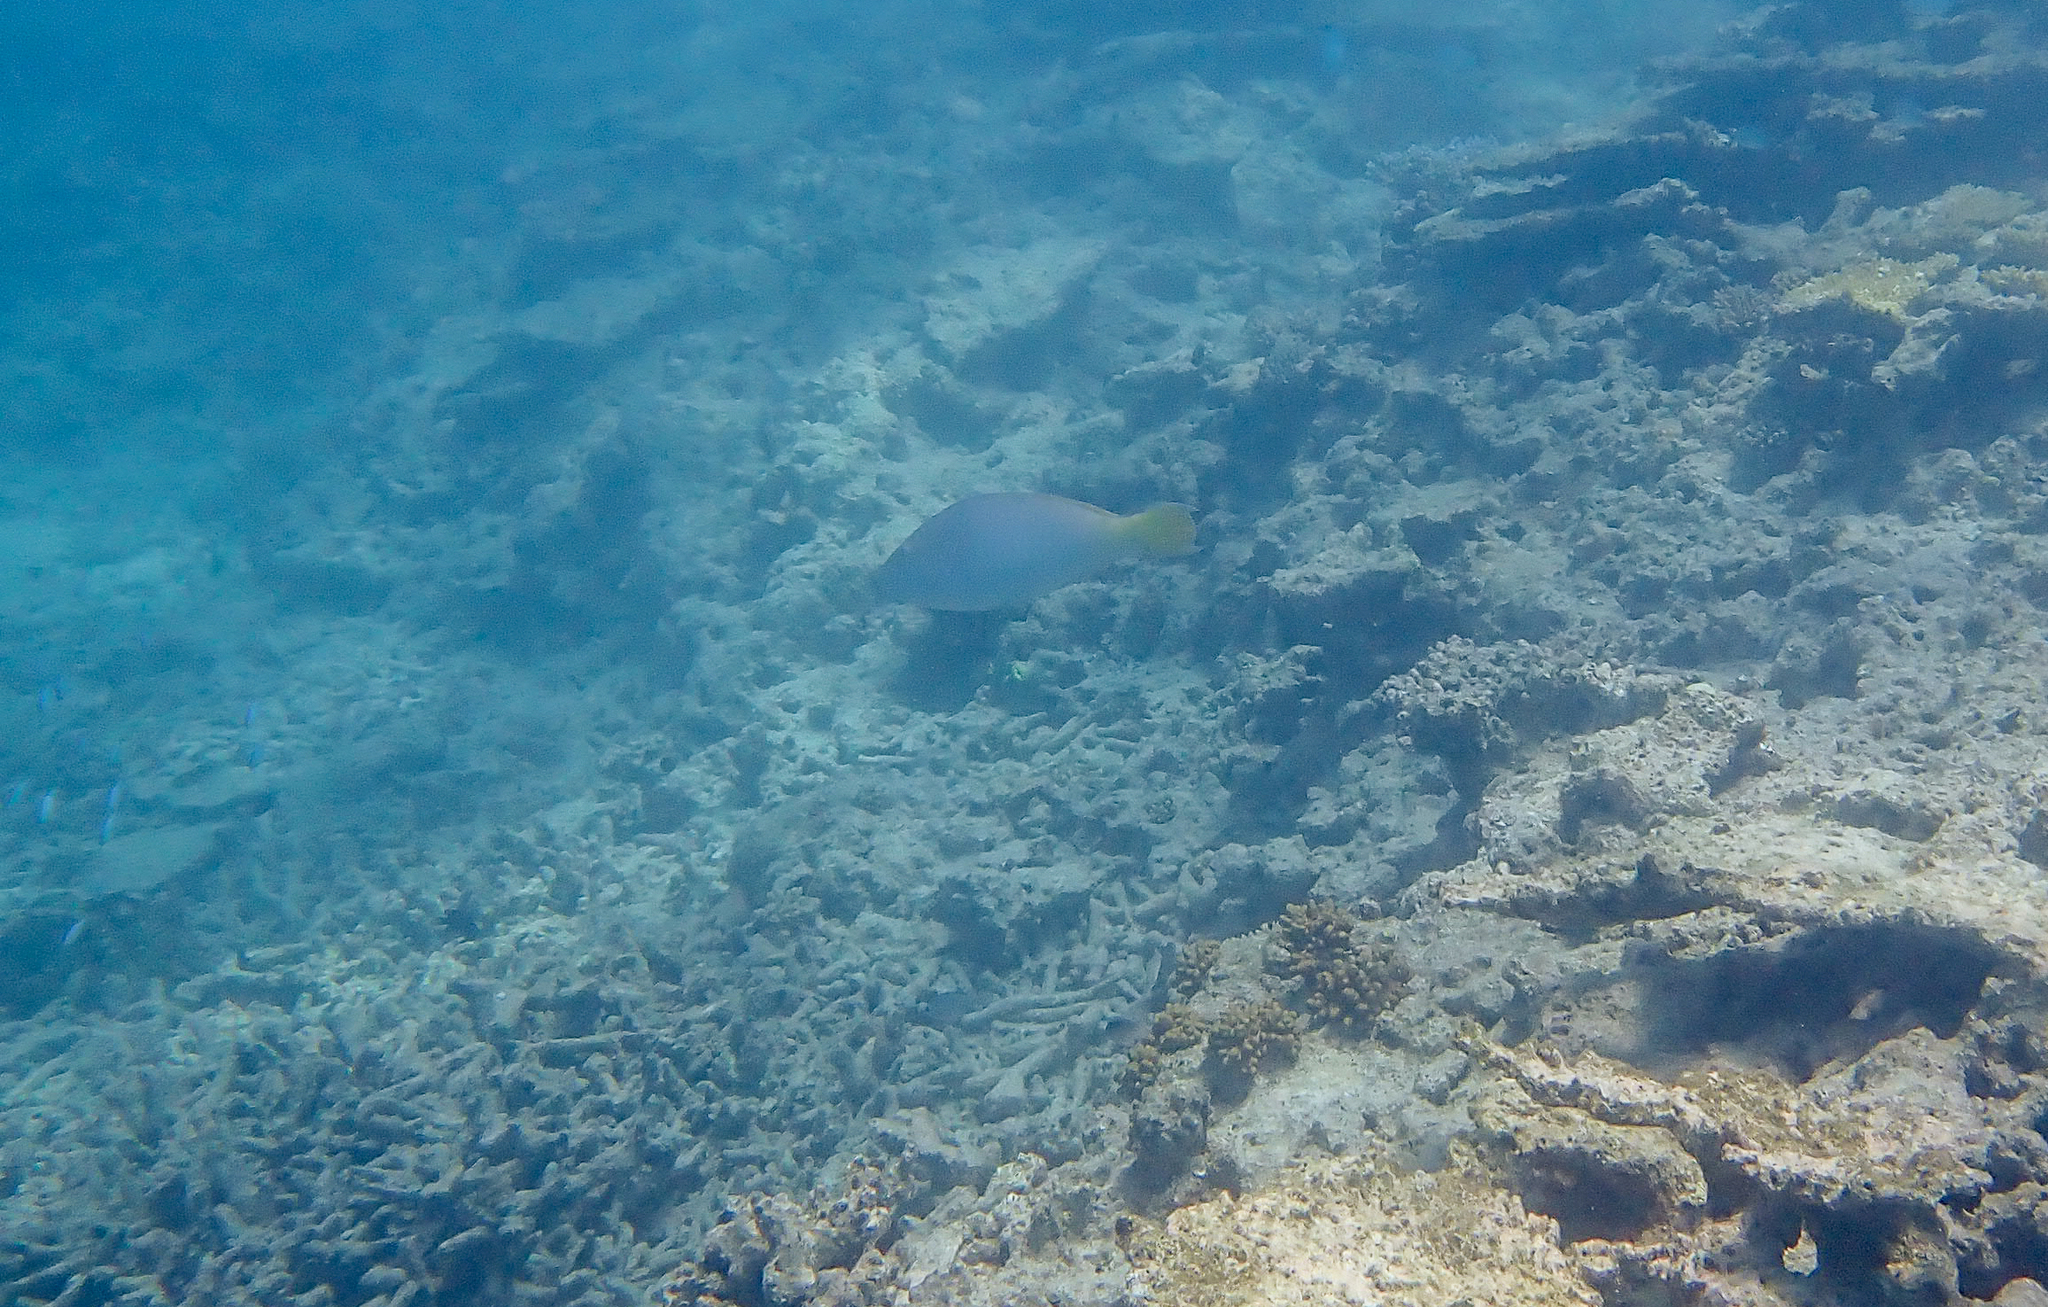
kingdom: Animalia
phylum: Chordata
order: Perciformes
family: Scaridae
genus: Hipposcarus
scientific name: Hipposcarus longiceps
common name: Pacific longnose parrotfish
